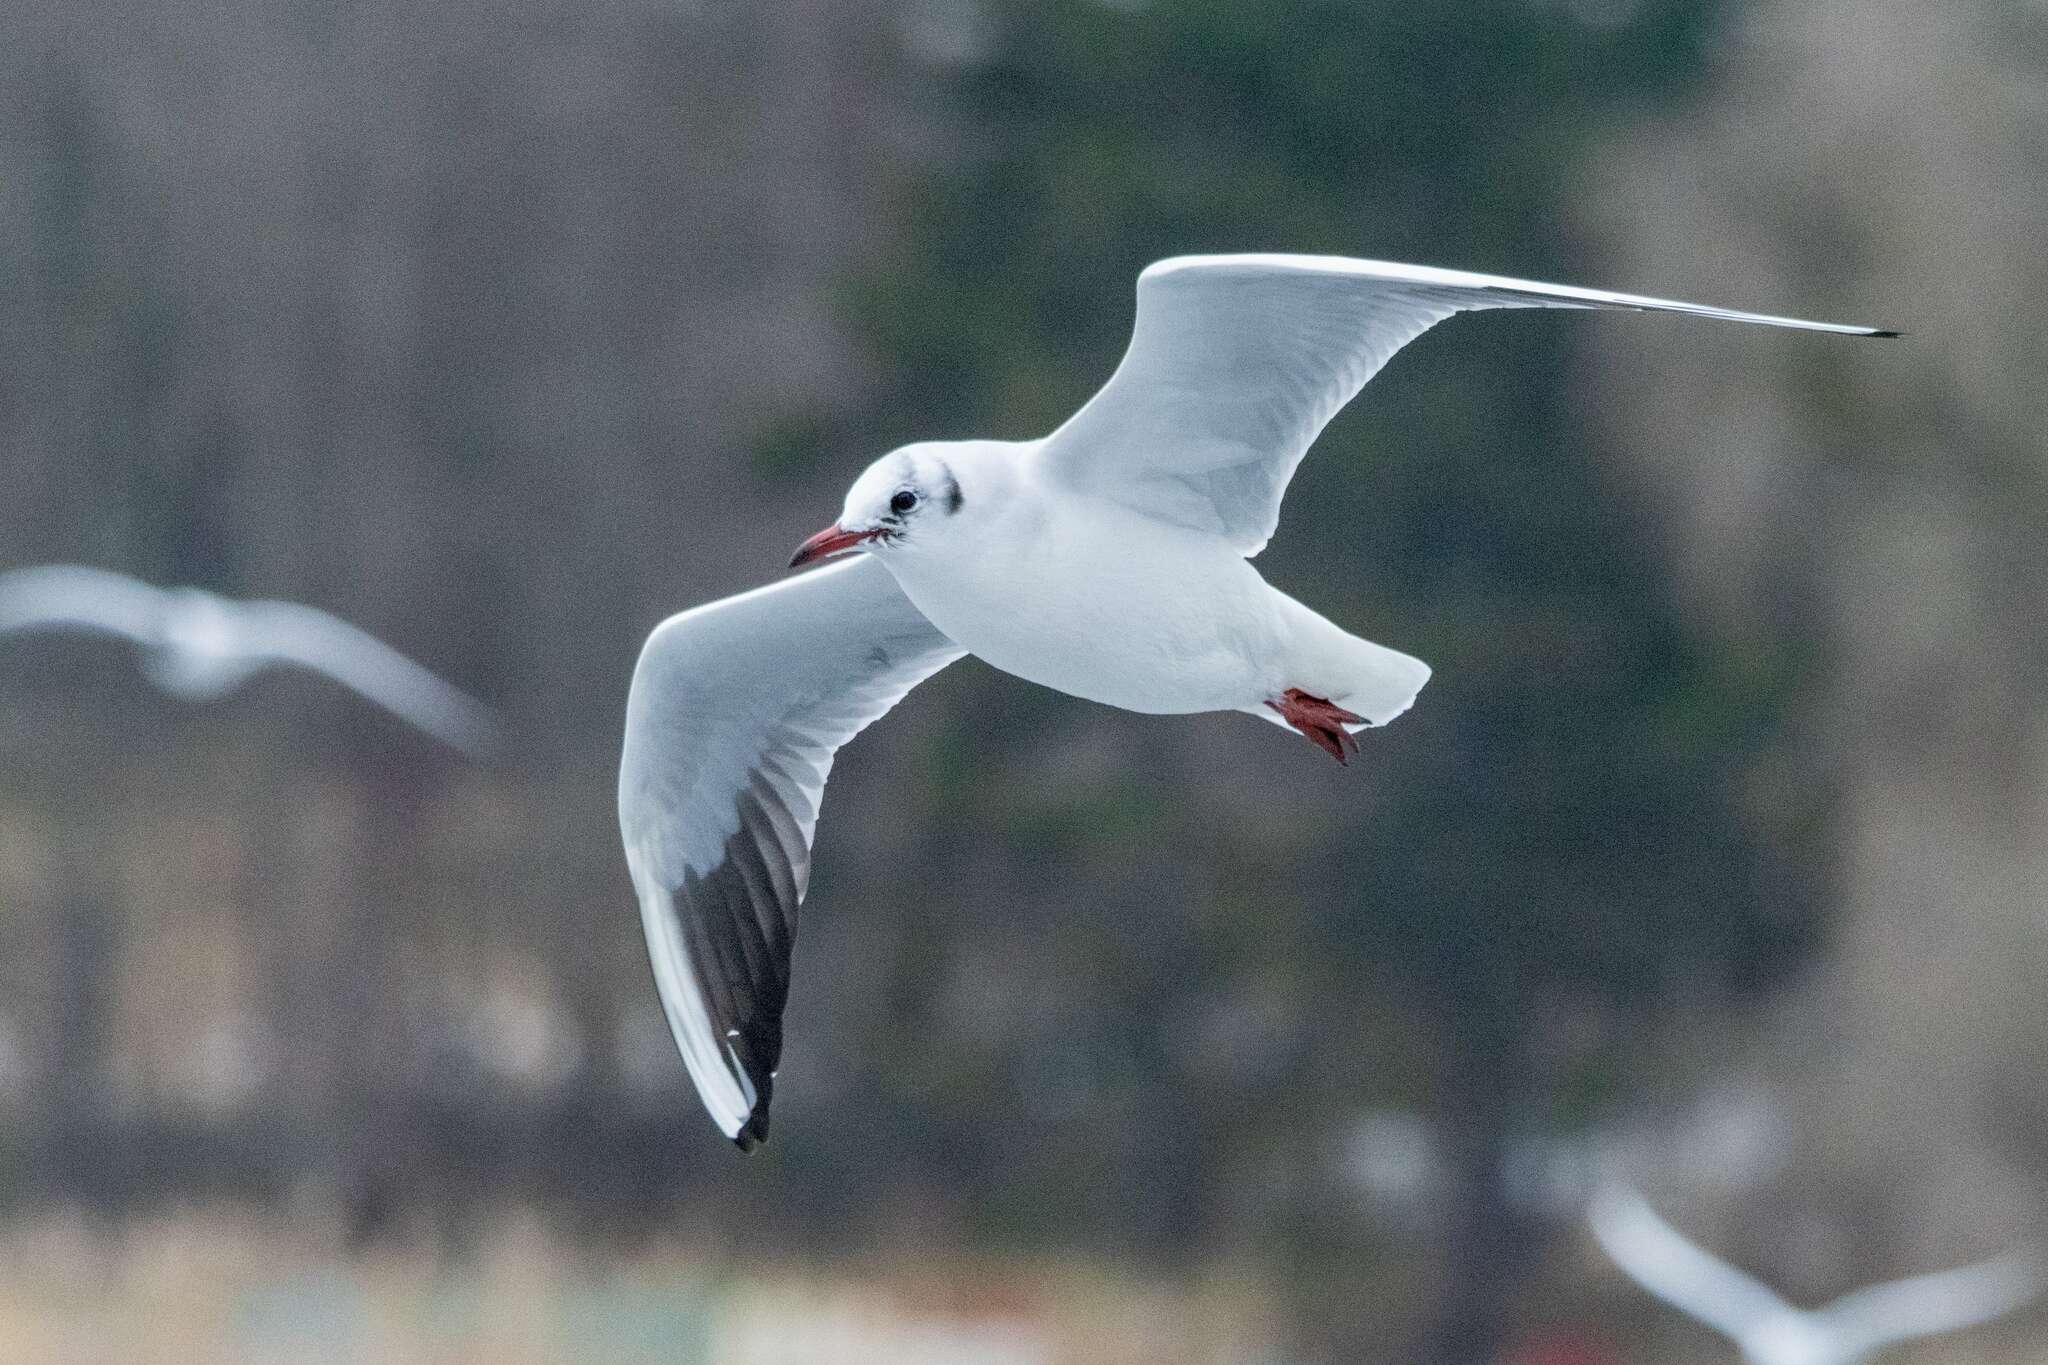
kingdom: Animalia
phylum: Chordata
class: Aves
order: Charadriiformes
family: Laridae
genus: Chroicocephalus
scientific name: Chroicocephalus ridibundus
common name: Black-headed gull
